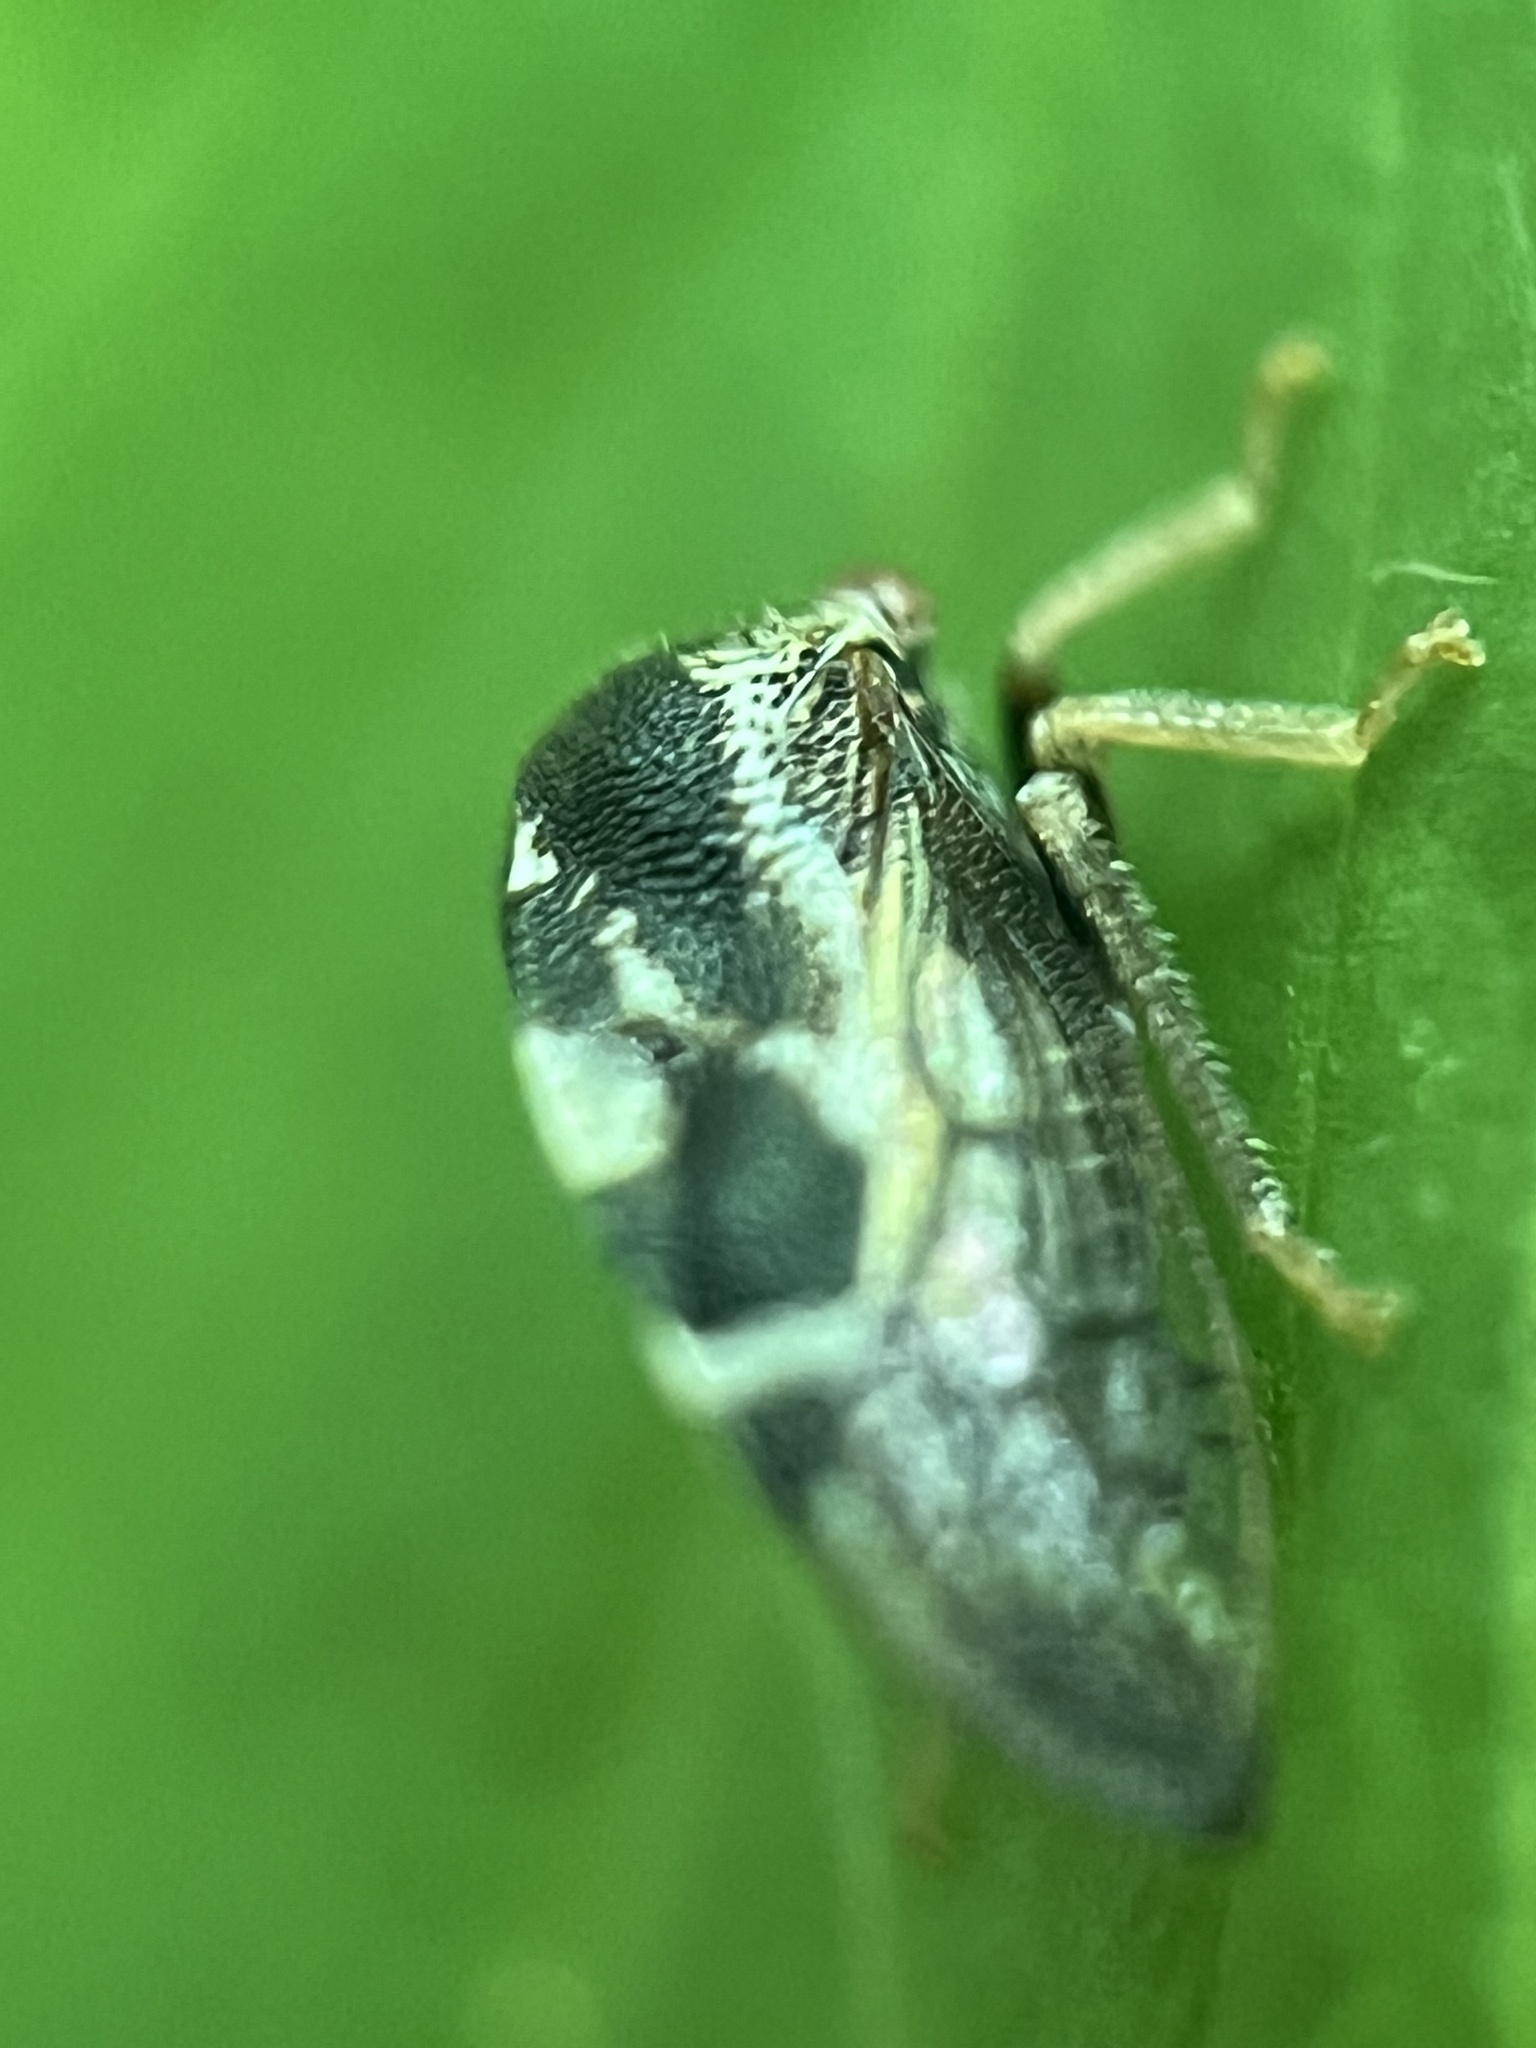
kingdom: Animalia
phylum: Arthropoda
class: Insecta
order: Hemiptera
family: Membracidae
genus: Cyrtolobus
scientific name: Cyrtolobus togatus
